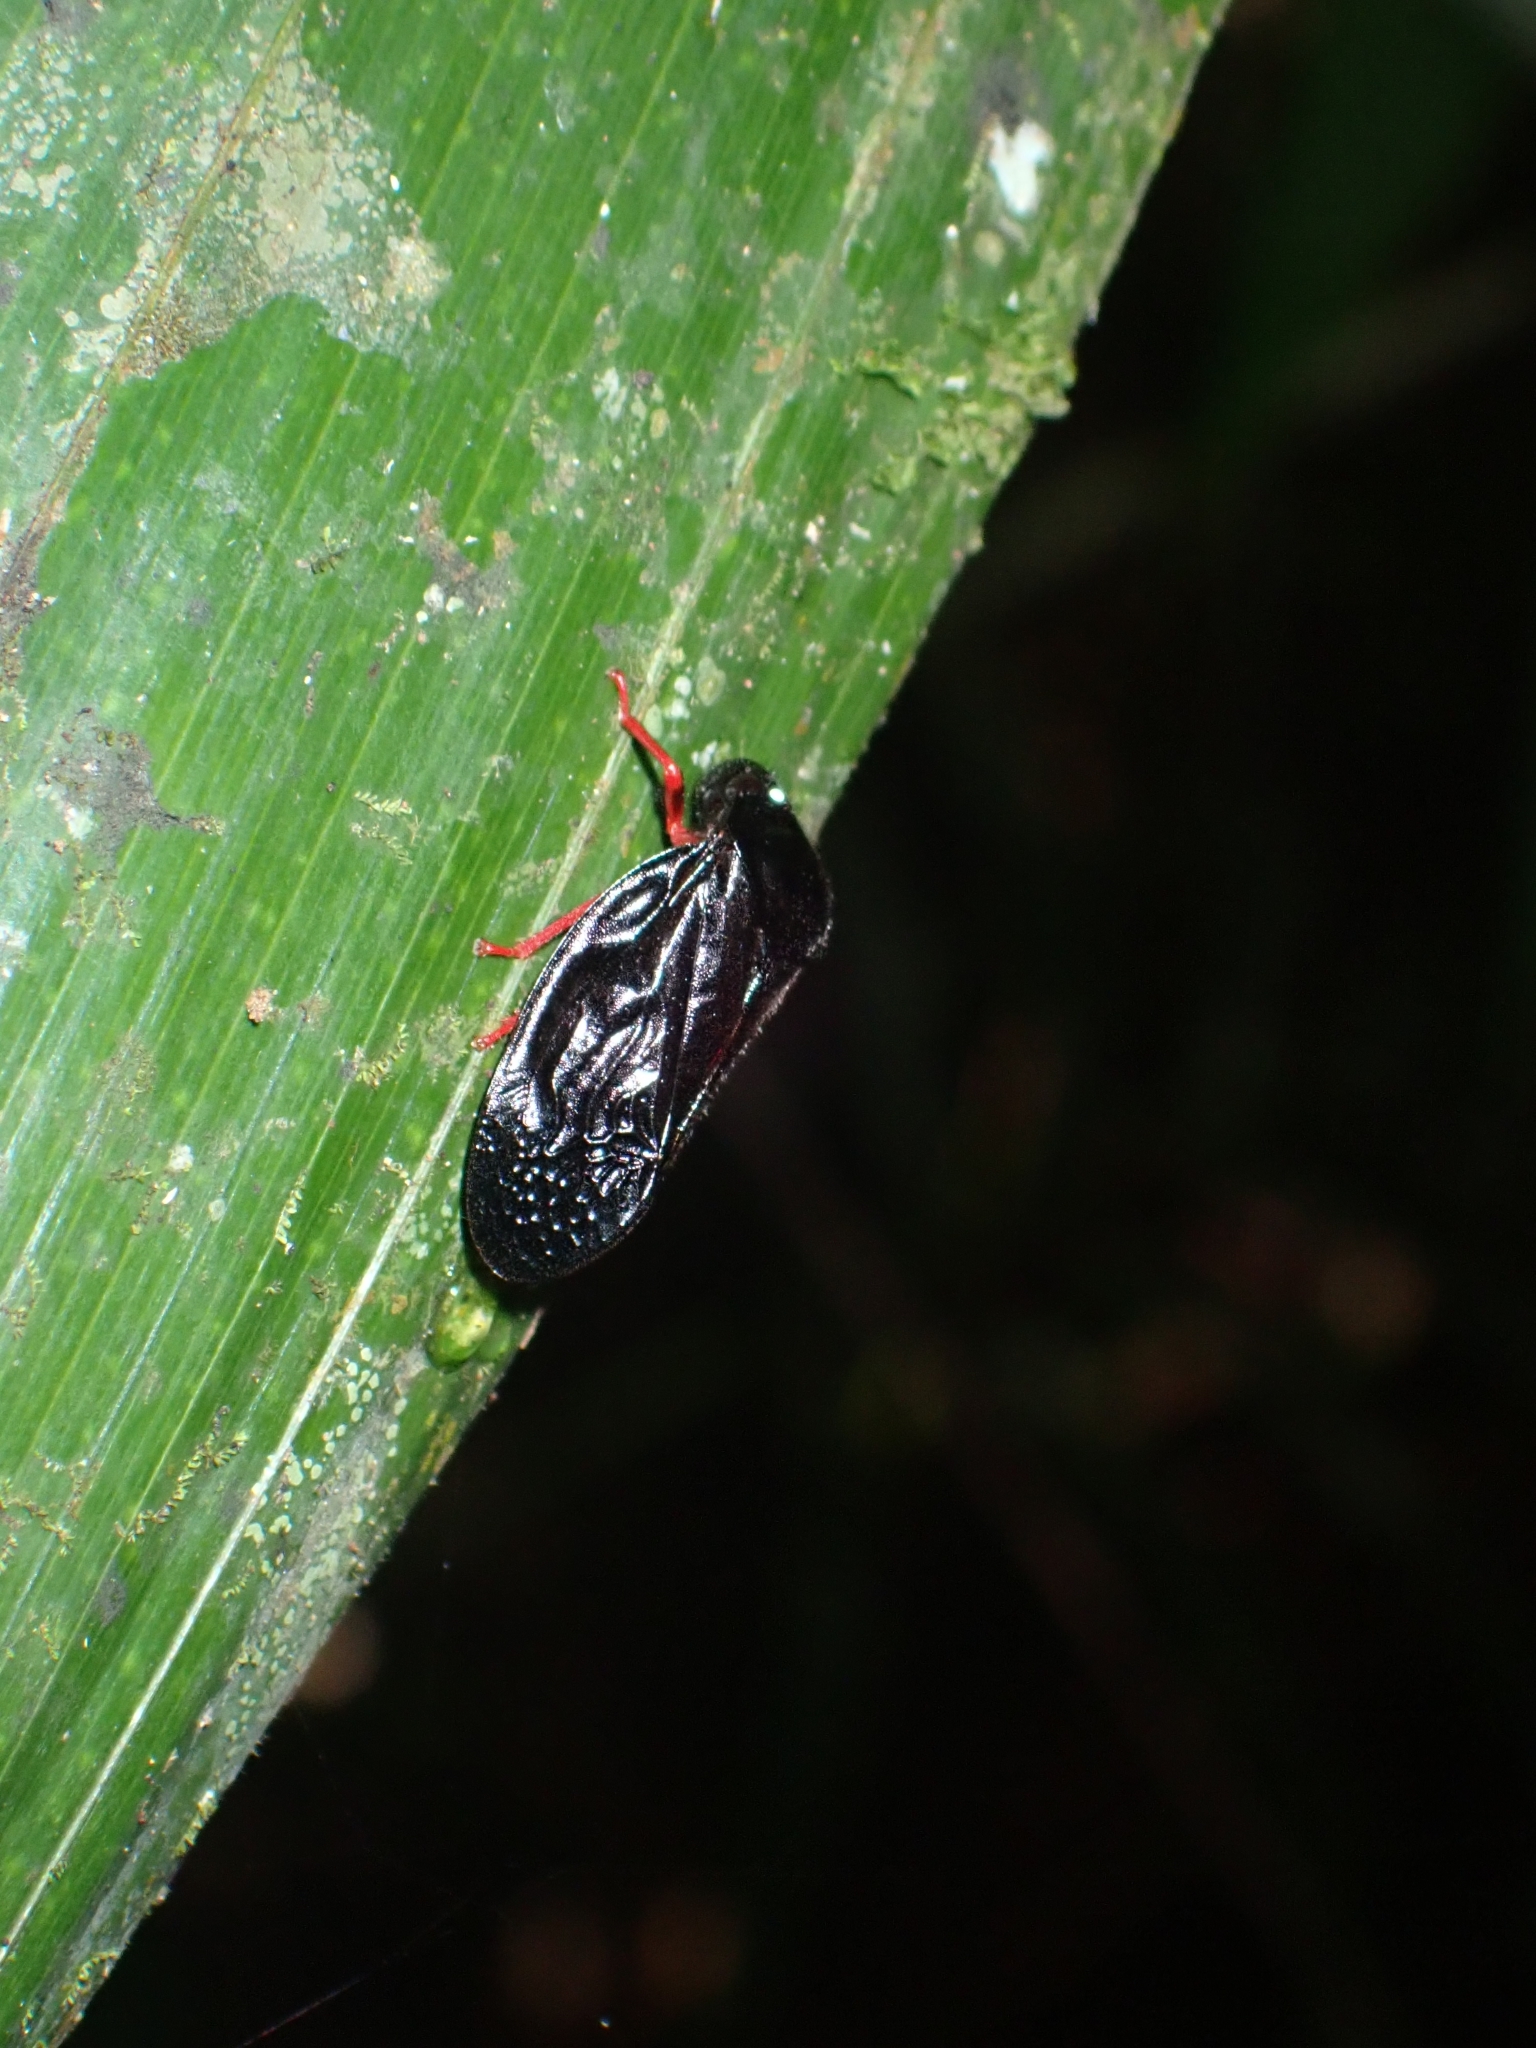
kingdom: Animalia
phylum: Arthropoda
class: Insecta
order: Hemiptera
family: Cercopidae
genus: Simeliria
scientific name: Simeliria viridans
